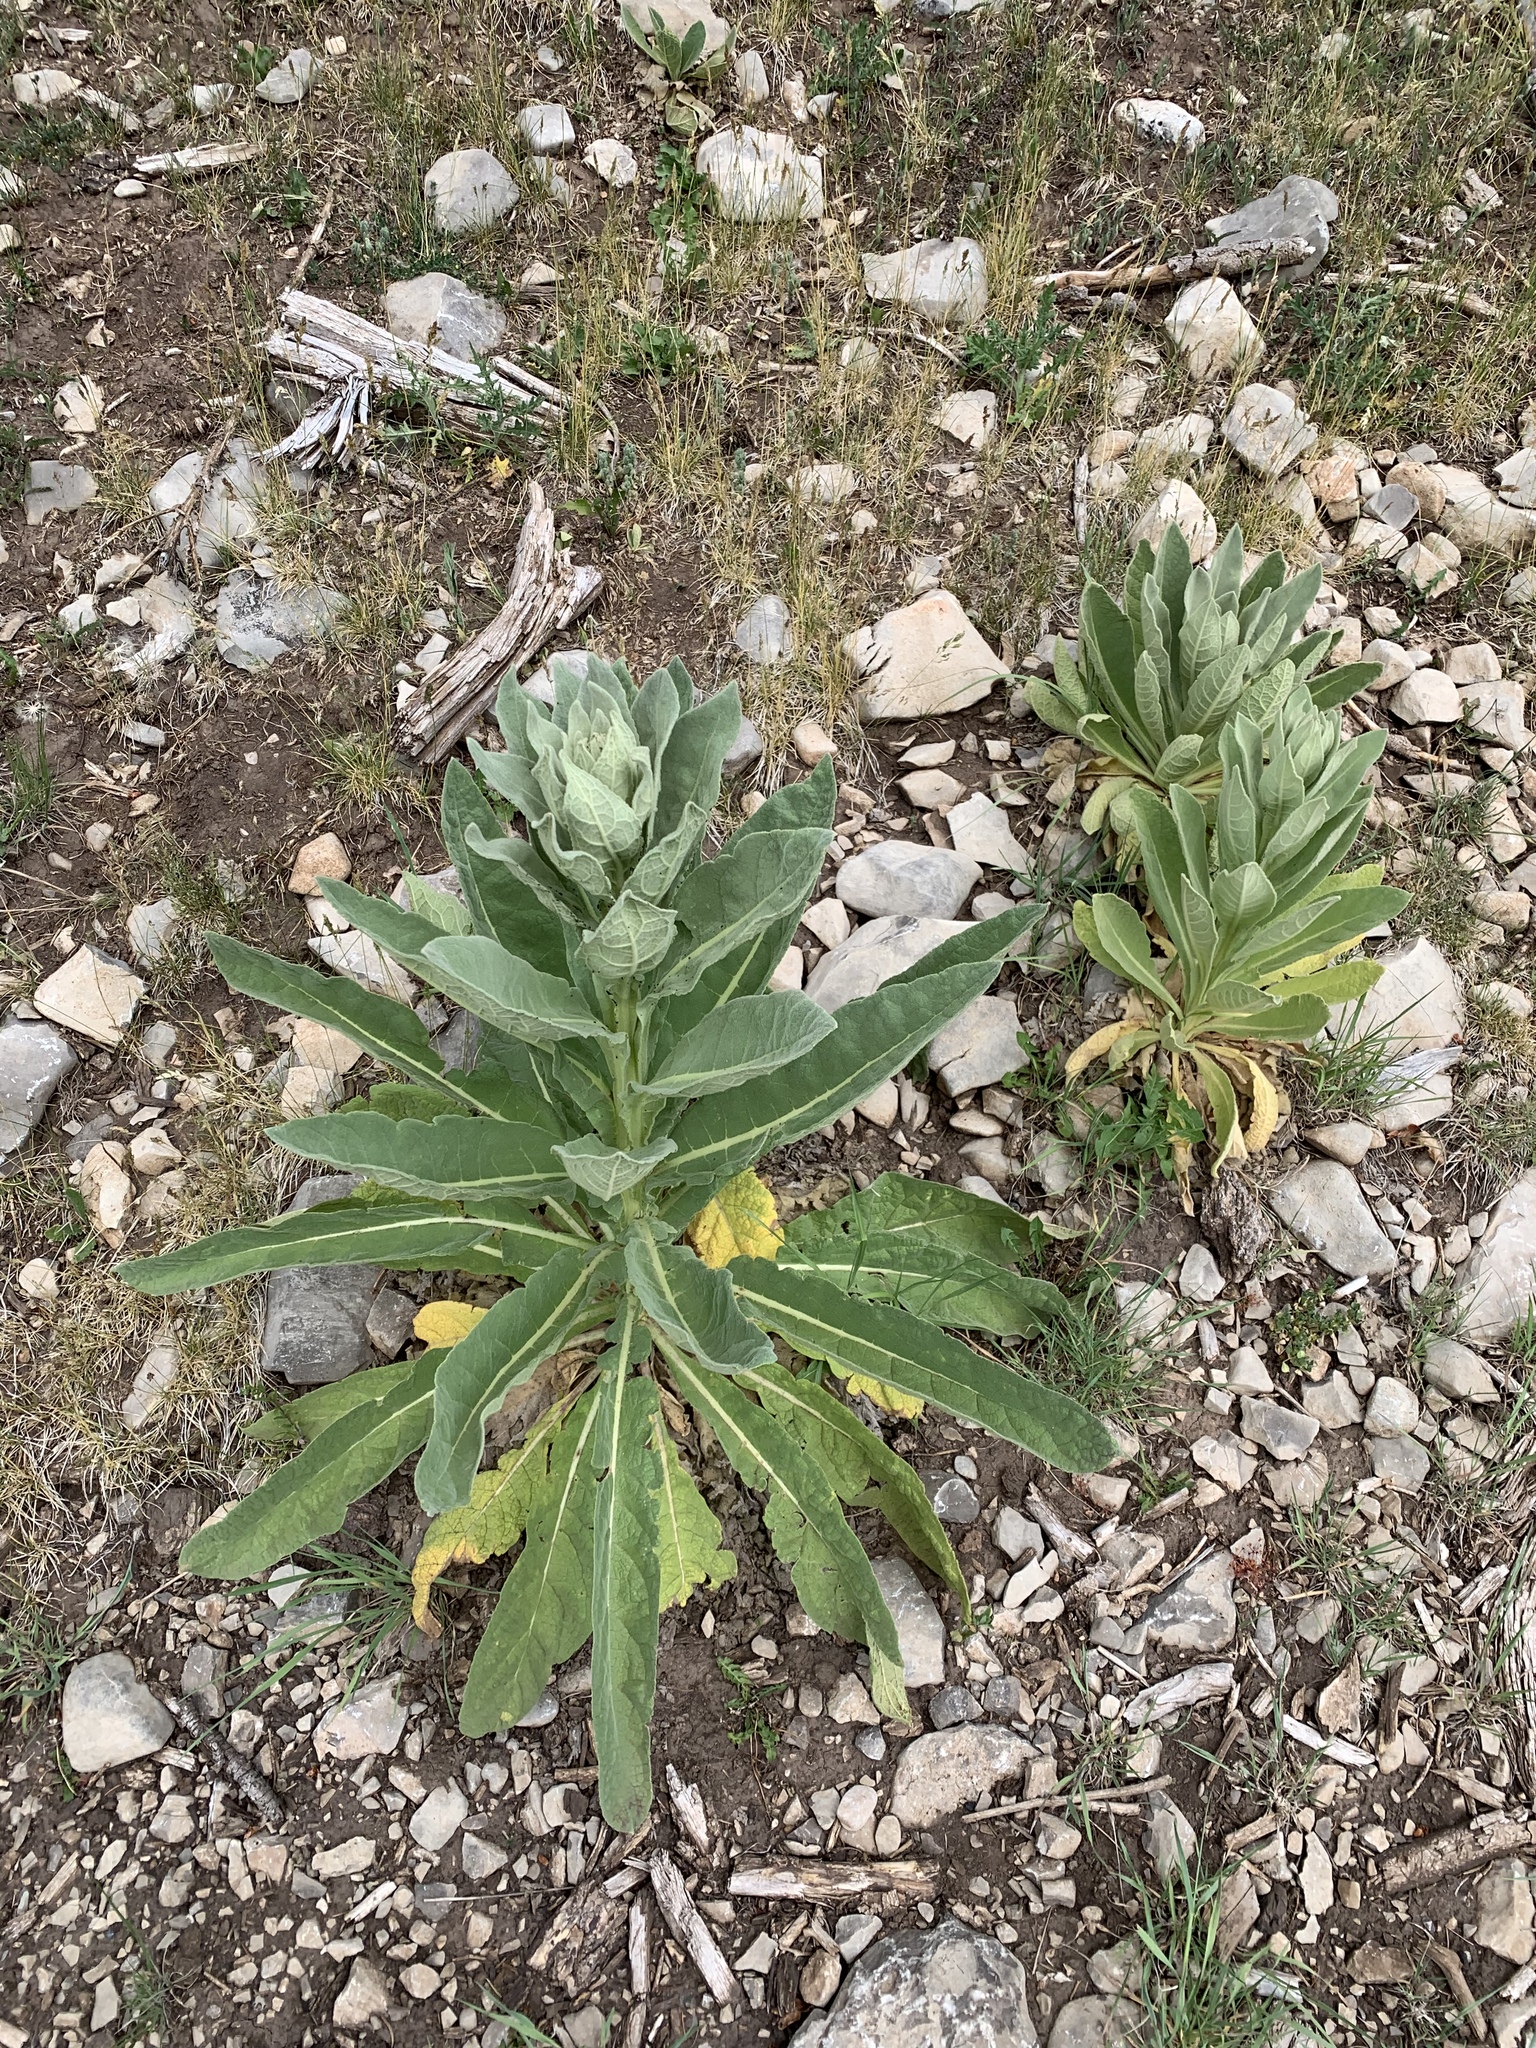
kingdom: Plantae
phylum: Tracheophyta
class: Magnoliopsida
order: Lamiales
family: Scrophulariaceae
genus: Verbascum
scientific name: Verbascum thapsus
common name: Common mullein
